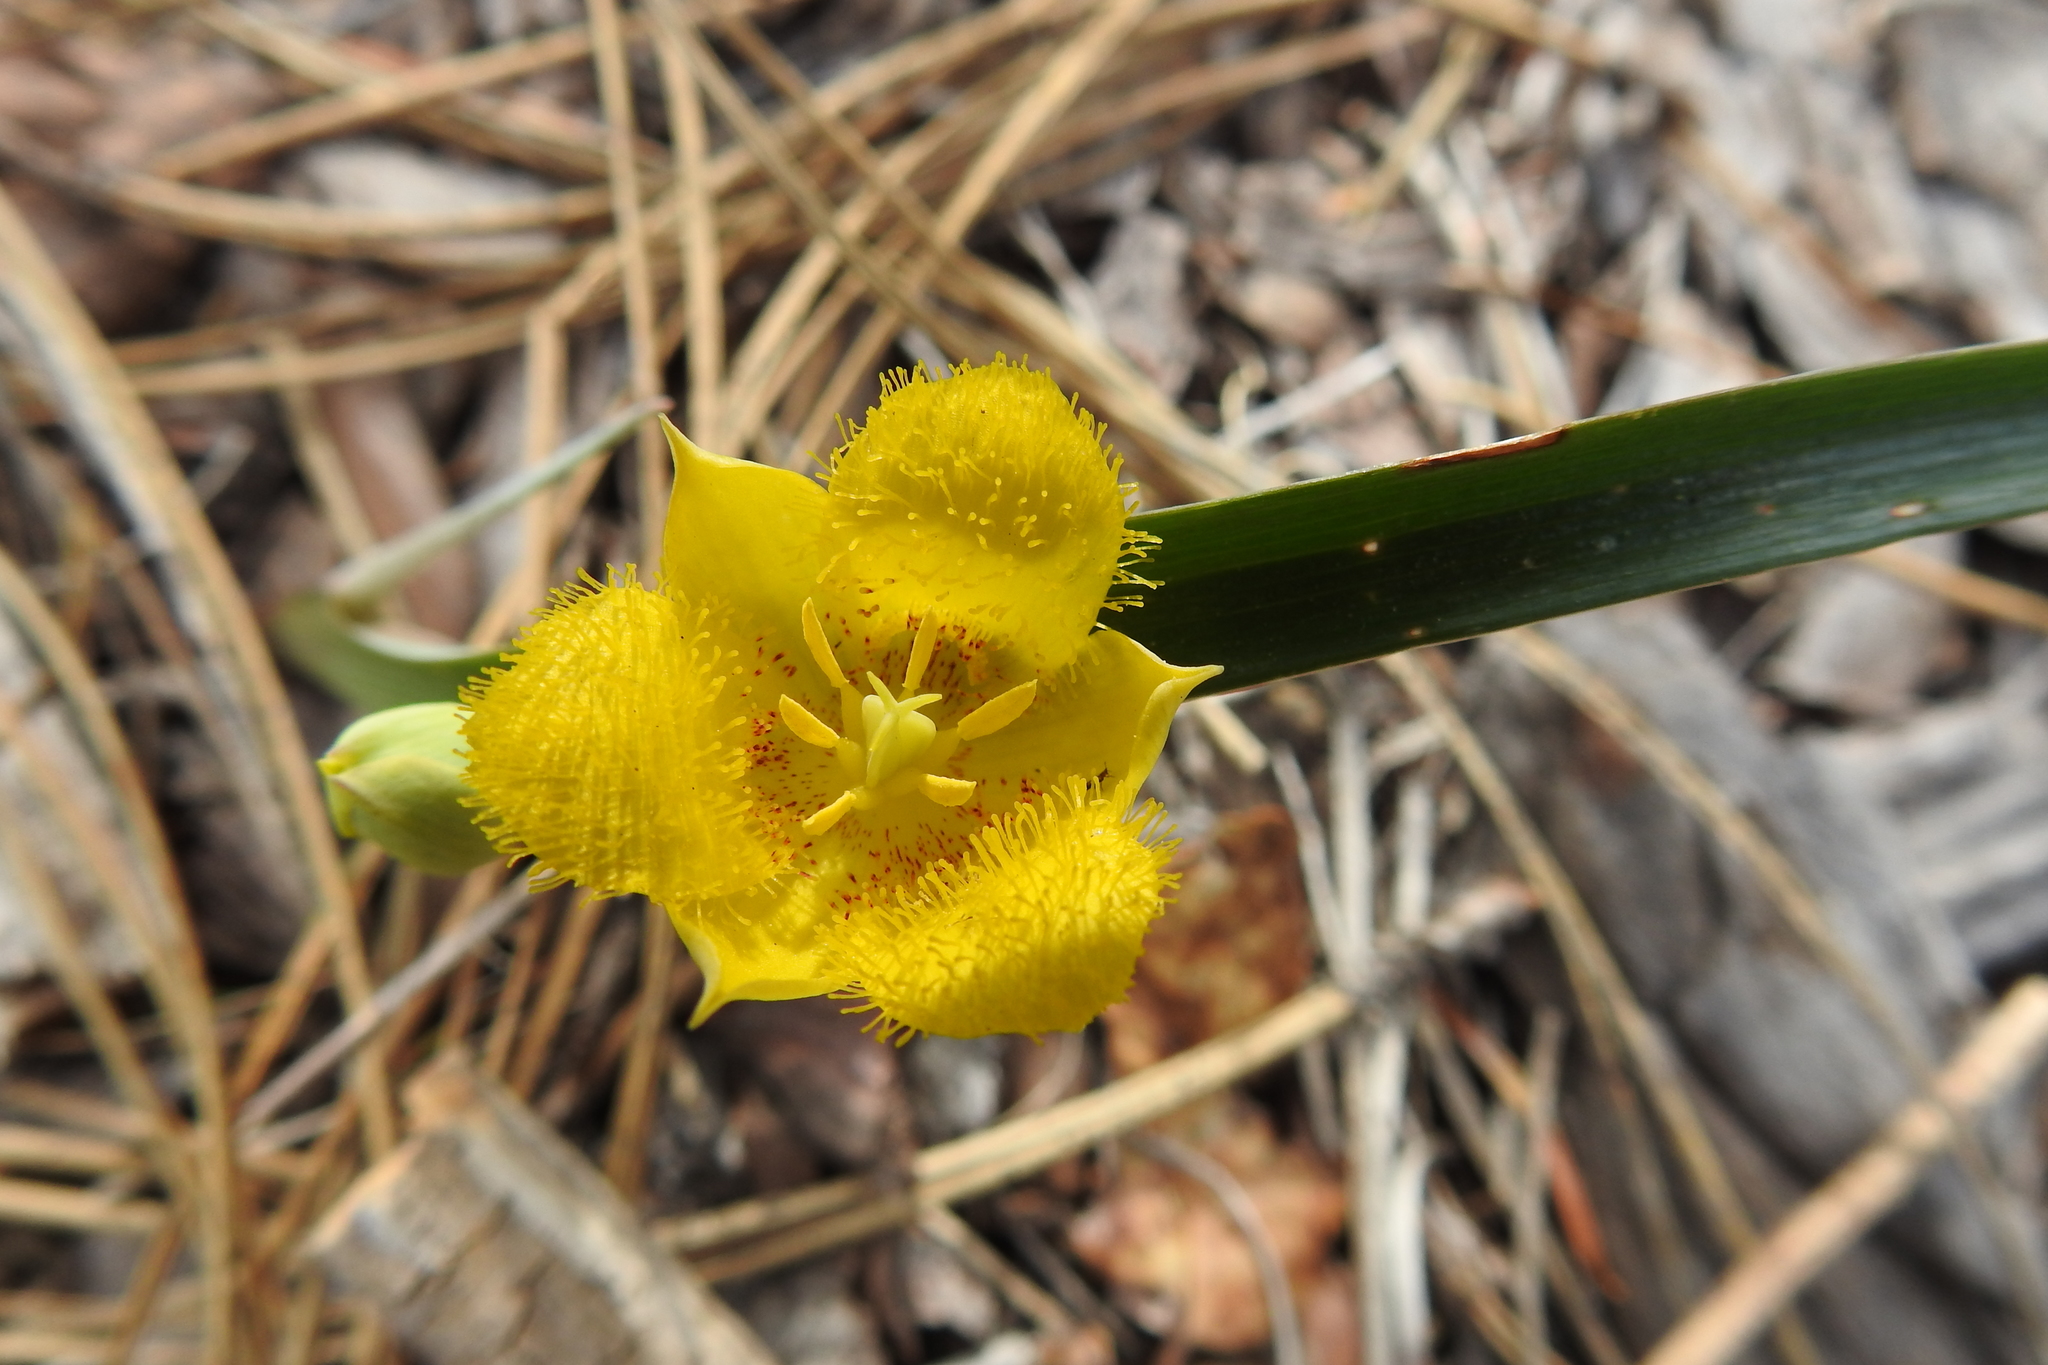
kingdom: Plantae
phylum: Tracheophyta
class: Liliopsida
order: Liliales
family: Liliaceae
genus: Calochortus
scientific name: Calochortus monophyllus
